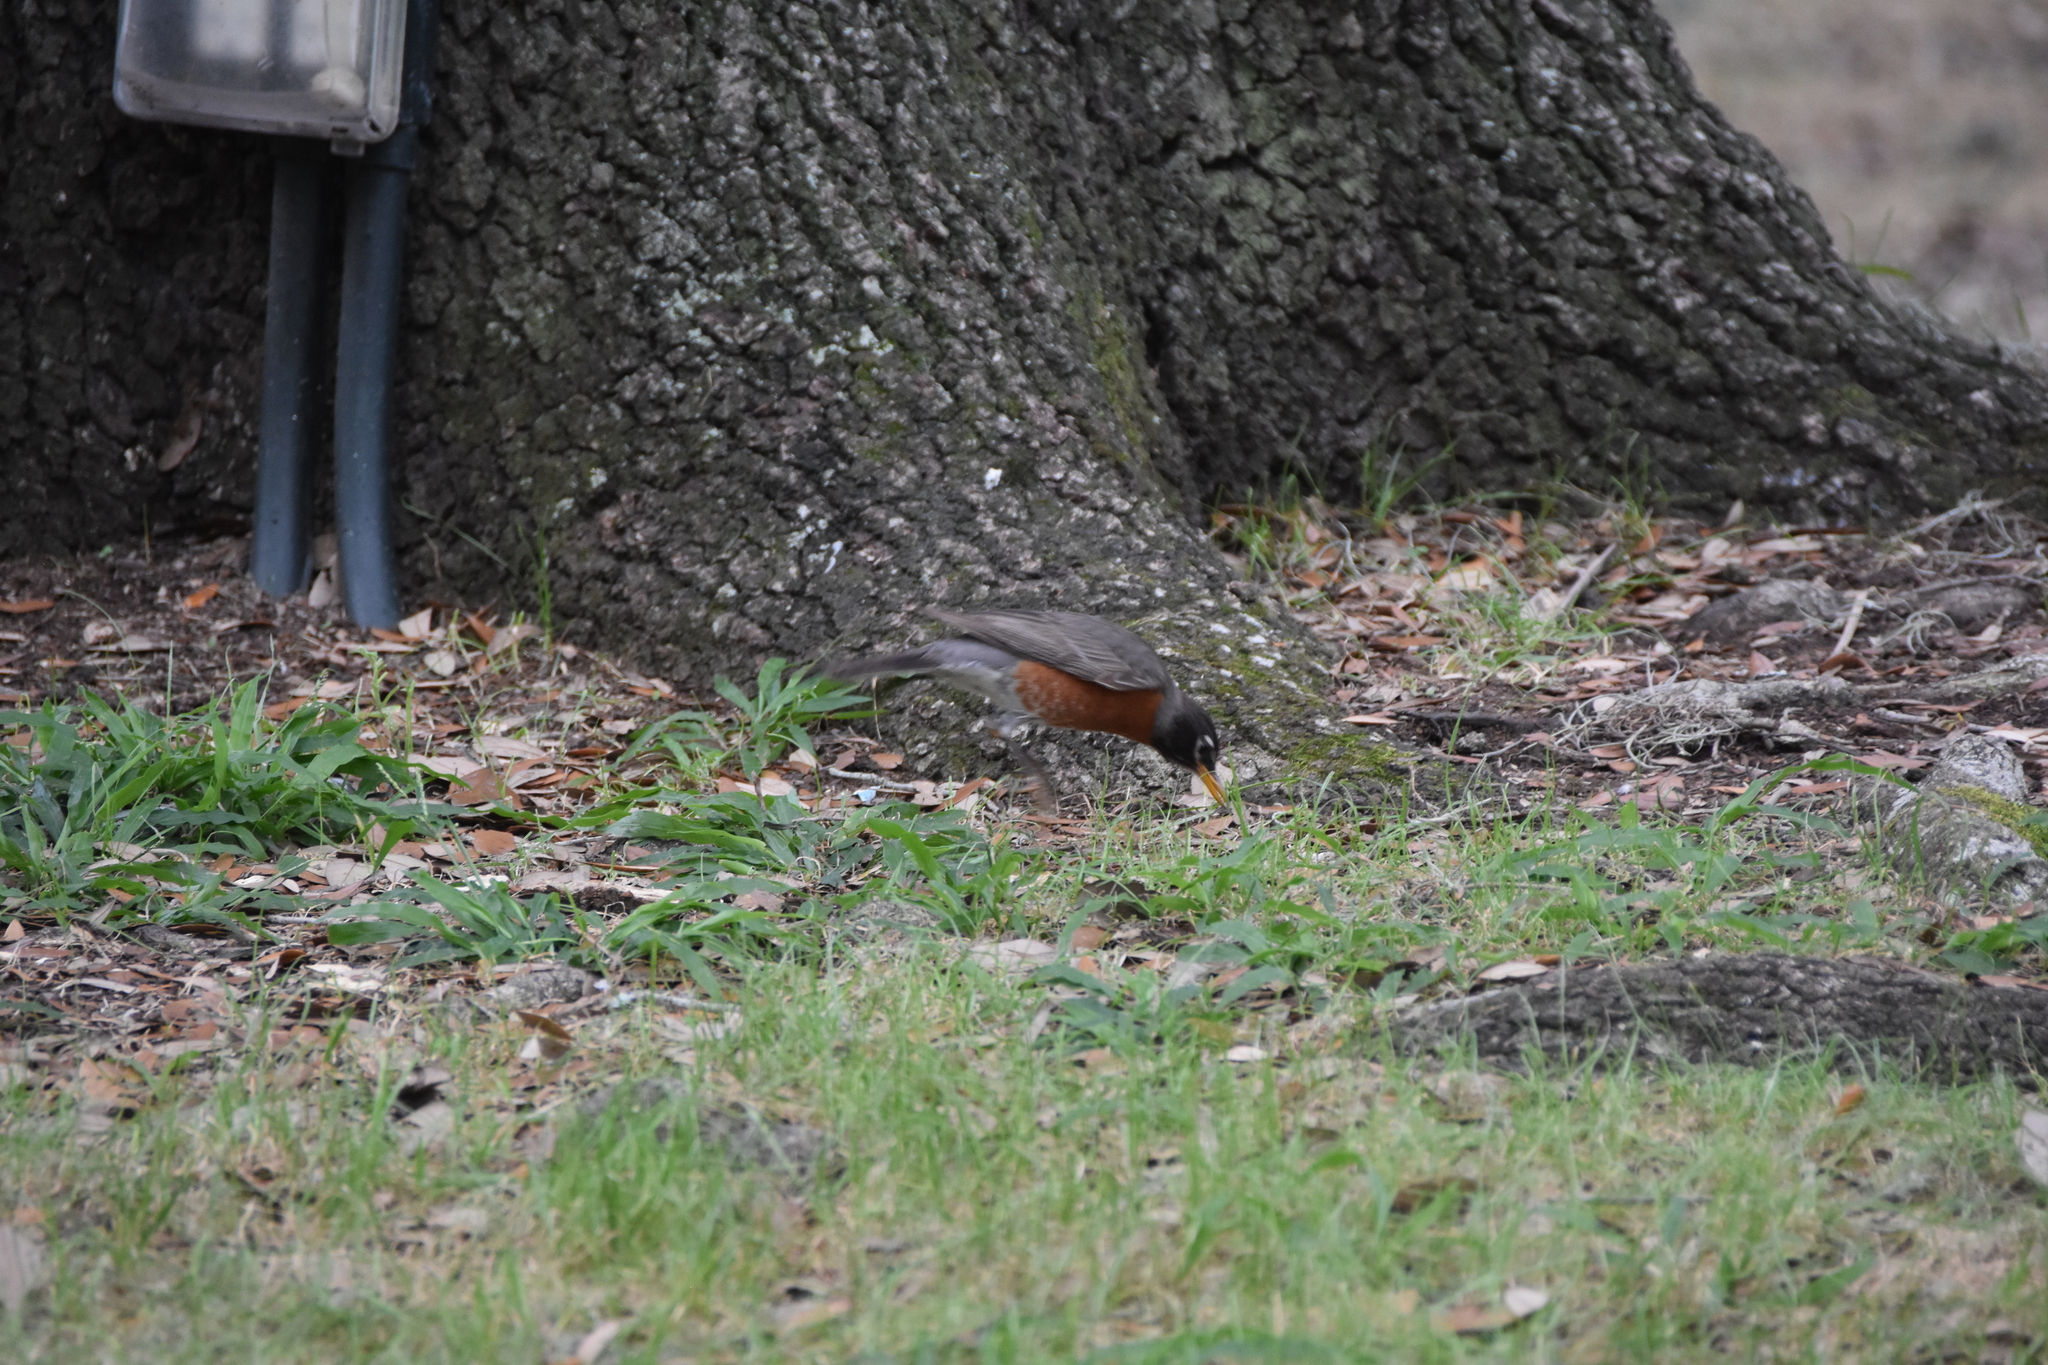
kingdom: Animalia
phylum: Chordata
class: Aves
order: Passeriformes
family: Turdidae
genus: Turdus
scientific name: Turdus migratorius
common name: American robin
